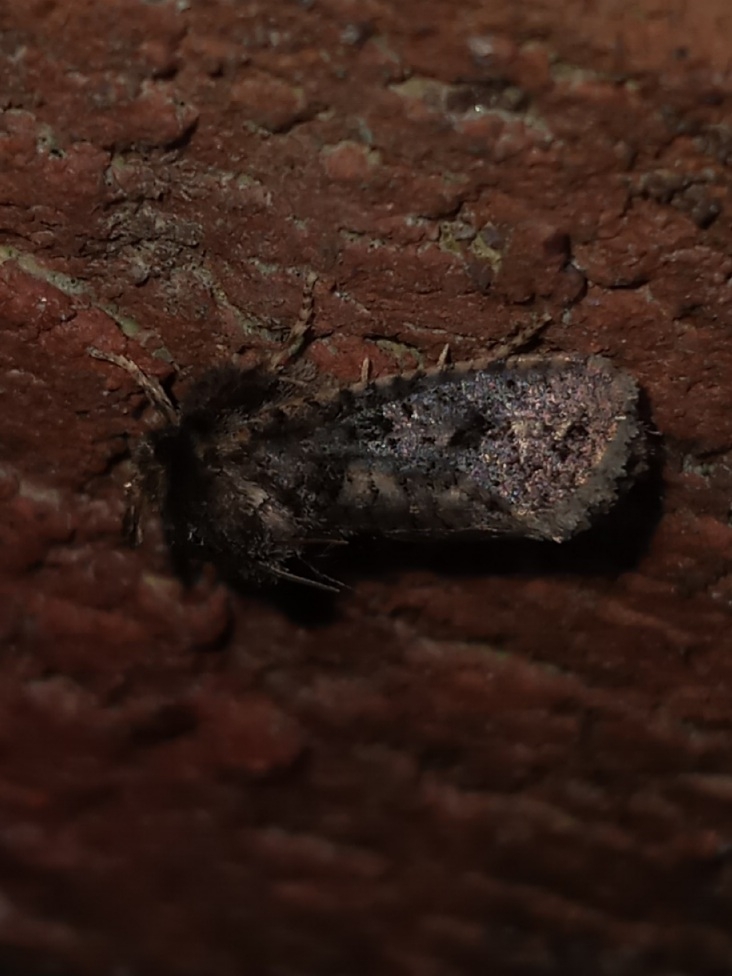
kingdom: Animalia
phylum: Arthropoda
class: Insecta
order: Lepidoptera
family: Tineidae
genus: Acrolophus
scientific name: Acrolophus arcanella
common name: Arcane grass tubeworm moth
